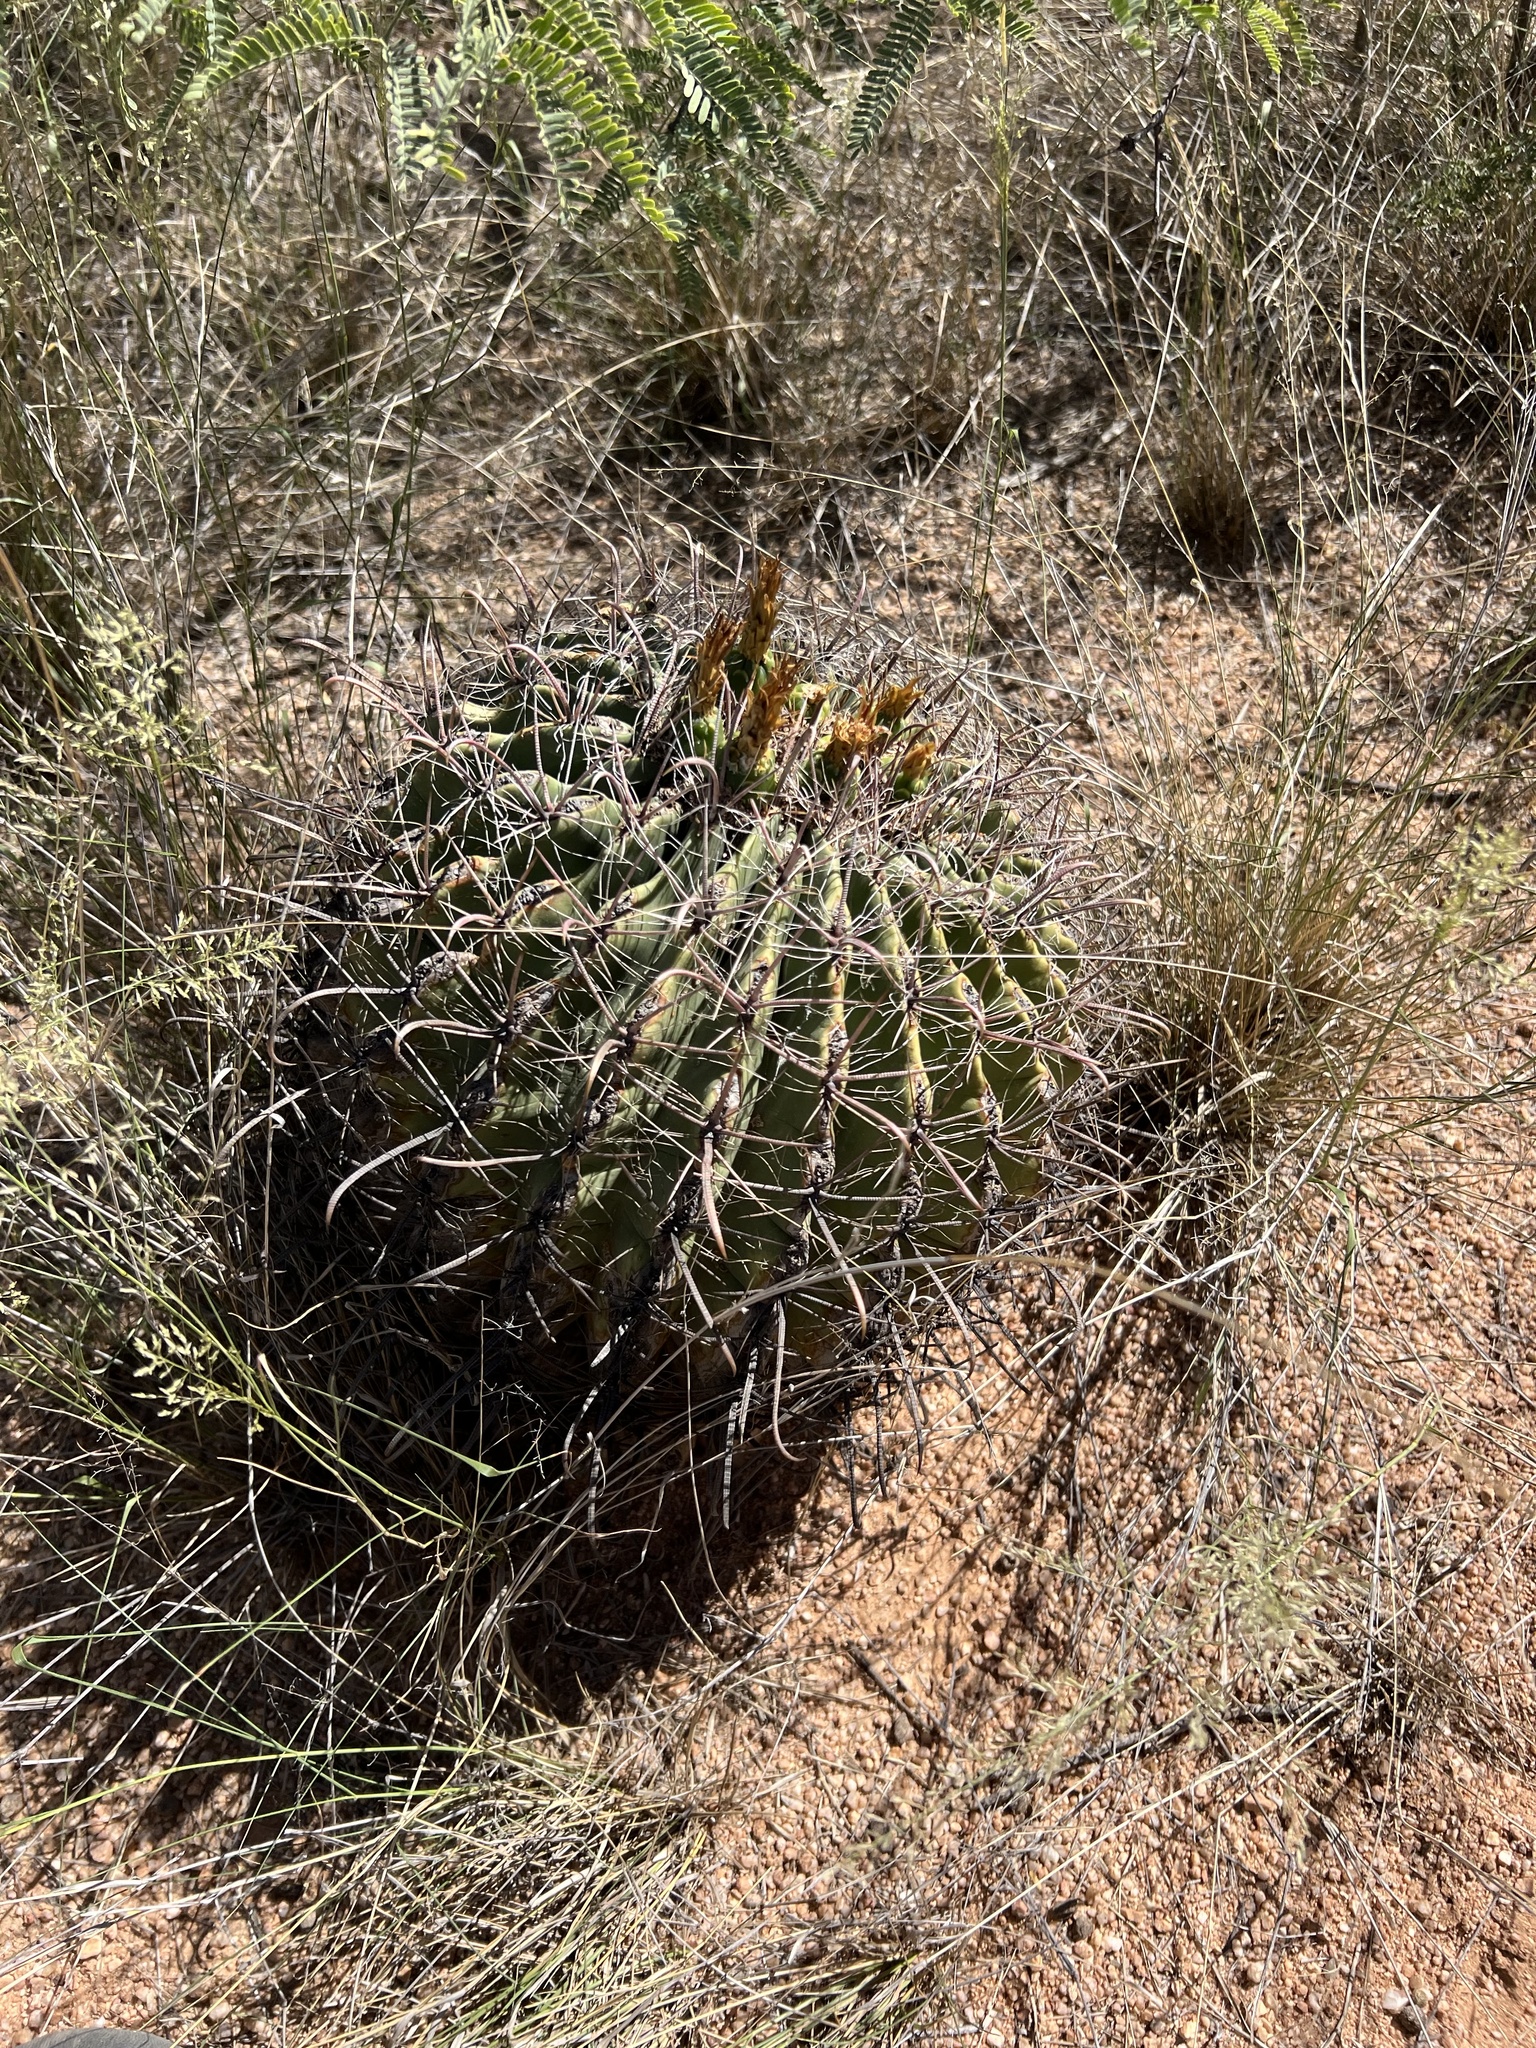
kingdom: Plantae
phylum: Tracheophyta
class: Magnoliopsida
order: Caryophyllales
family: Cactaceae
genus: Ferocactus
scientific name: Ferocactus wislizeni
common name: Candy barrel cactus
